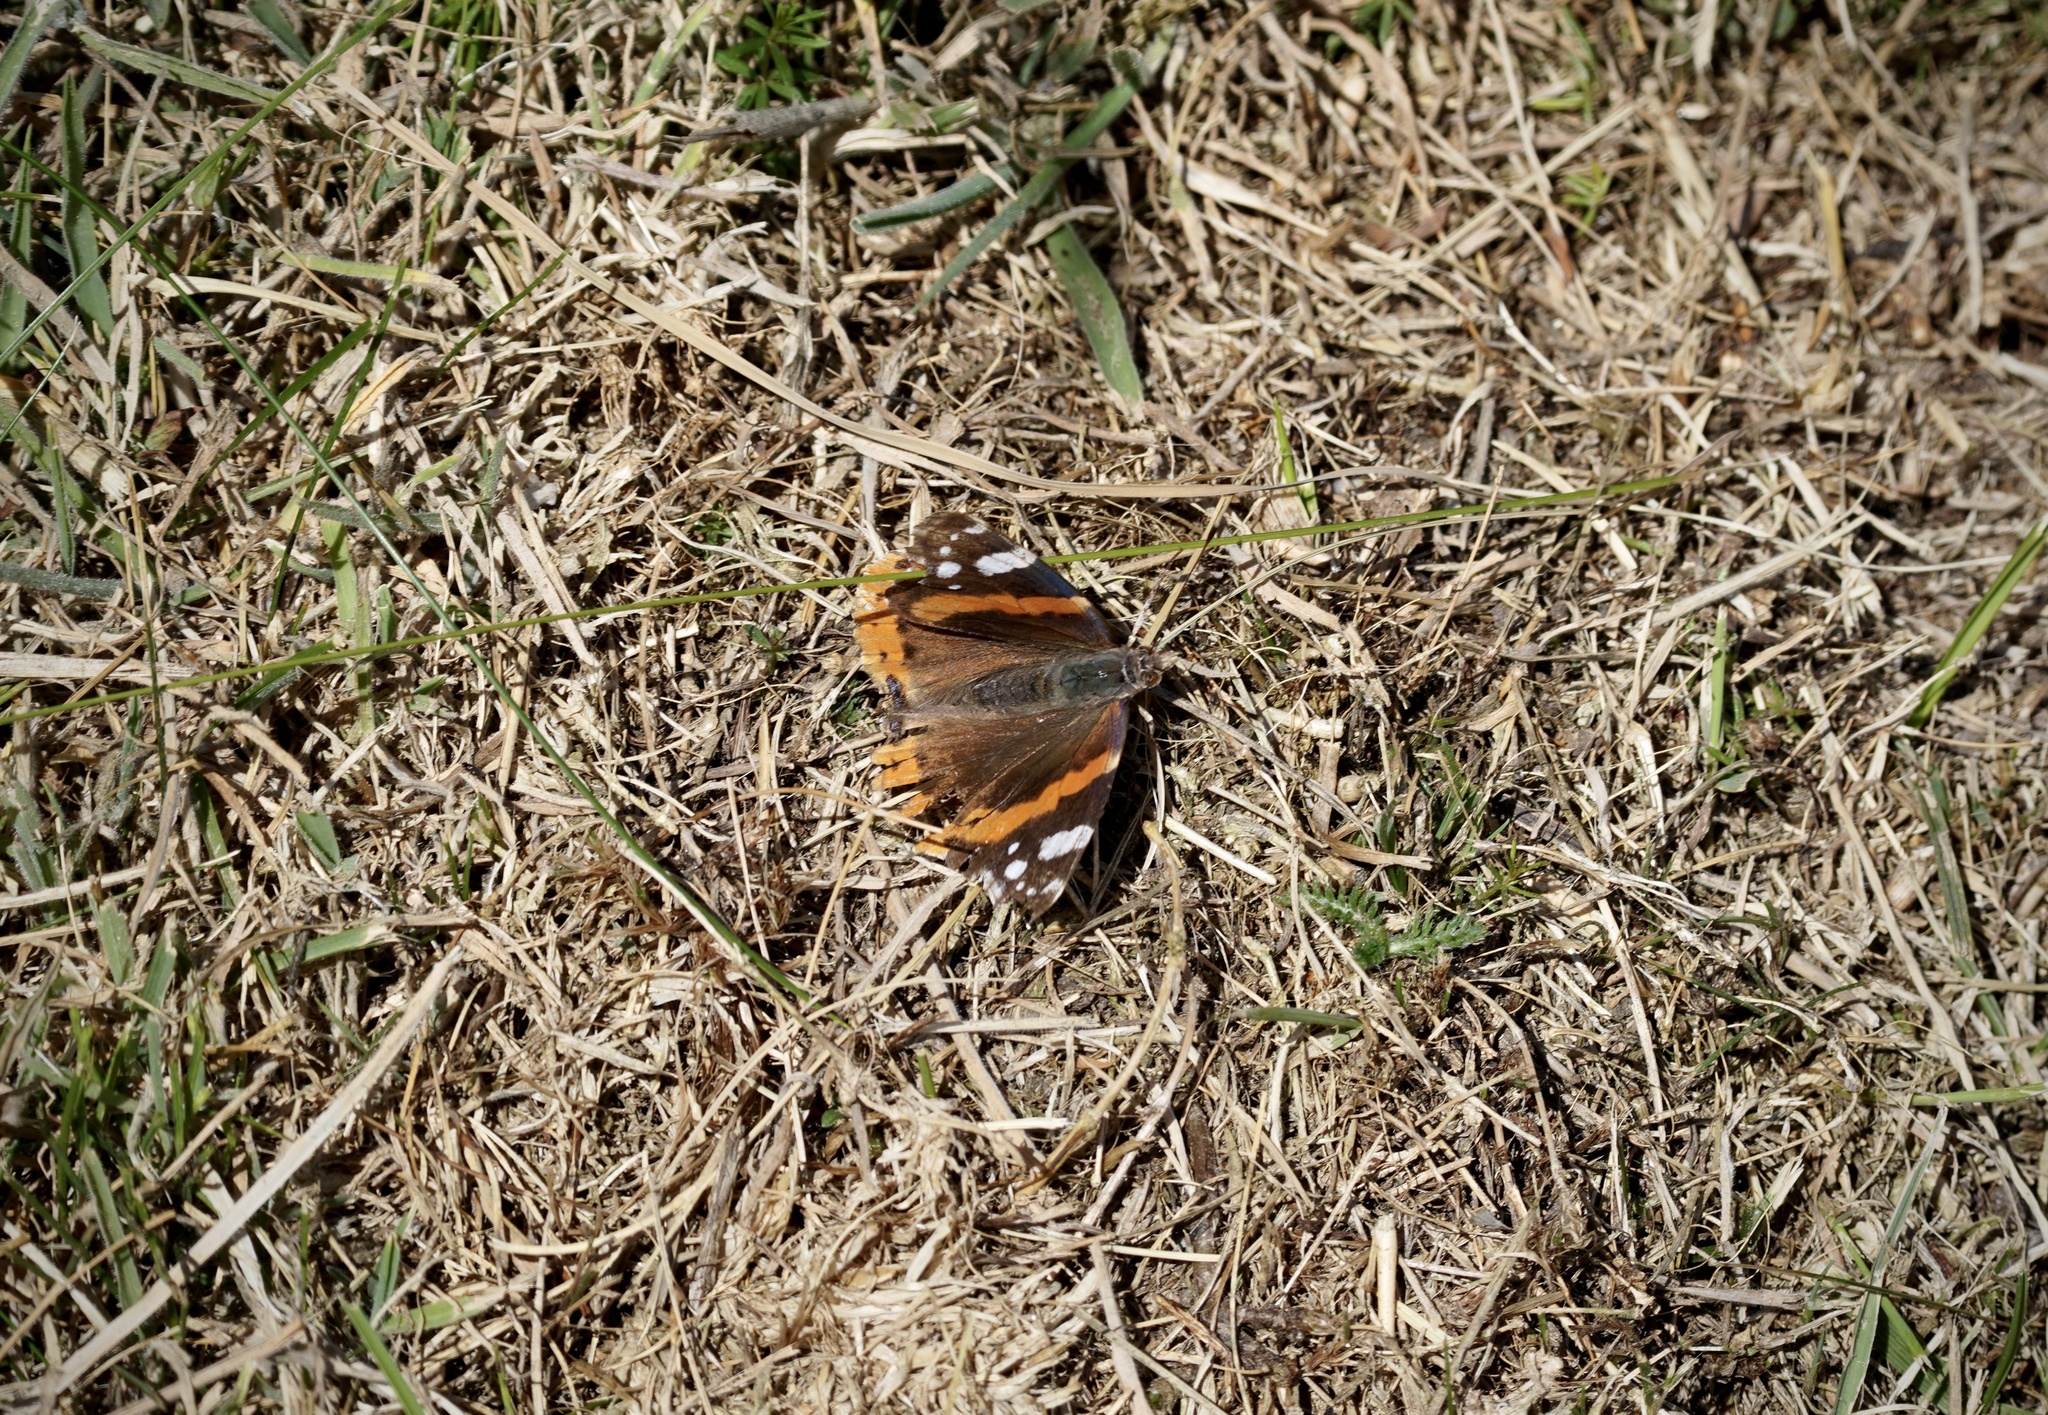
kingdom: Animalia
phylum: Arthropoda
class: Insecta
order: Lepidoptera
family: Nymphalidae
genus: Vanessa
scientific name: Vanessa atalanta
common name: Red admiral
